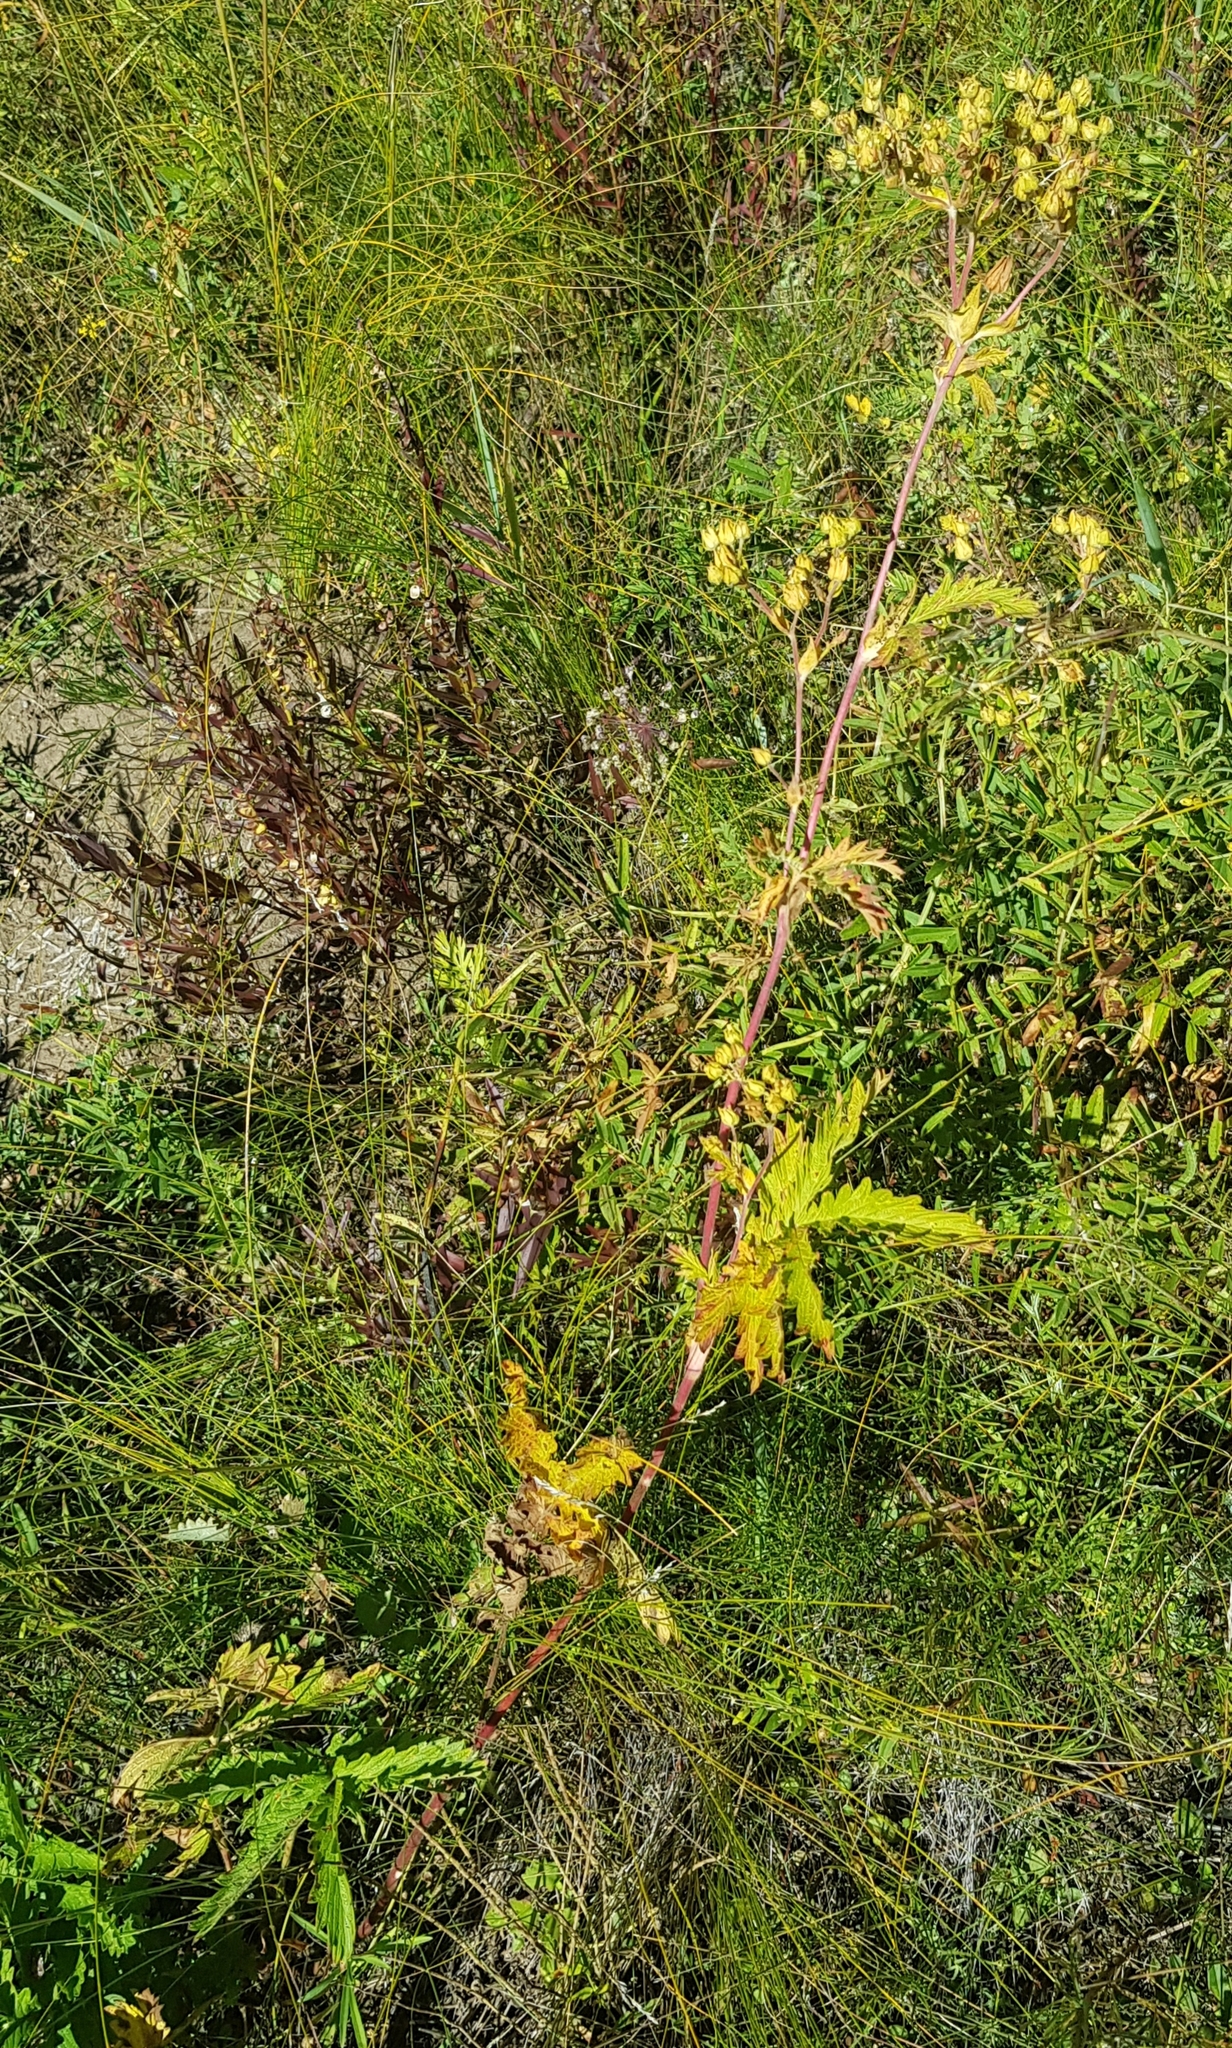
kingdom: Plantae
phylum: Tracheophyta
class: Magnoliopsida
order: Rosales
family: Rosaceae
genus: Potentilla
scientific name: Potentilla tanacetifolia
